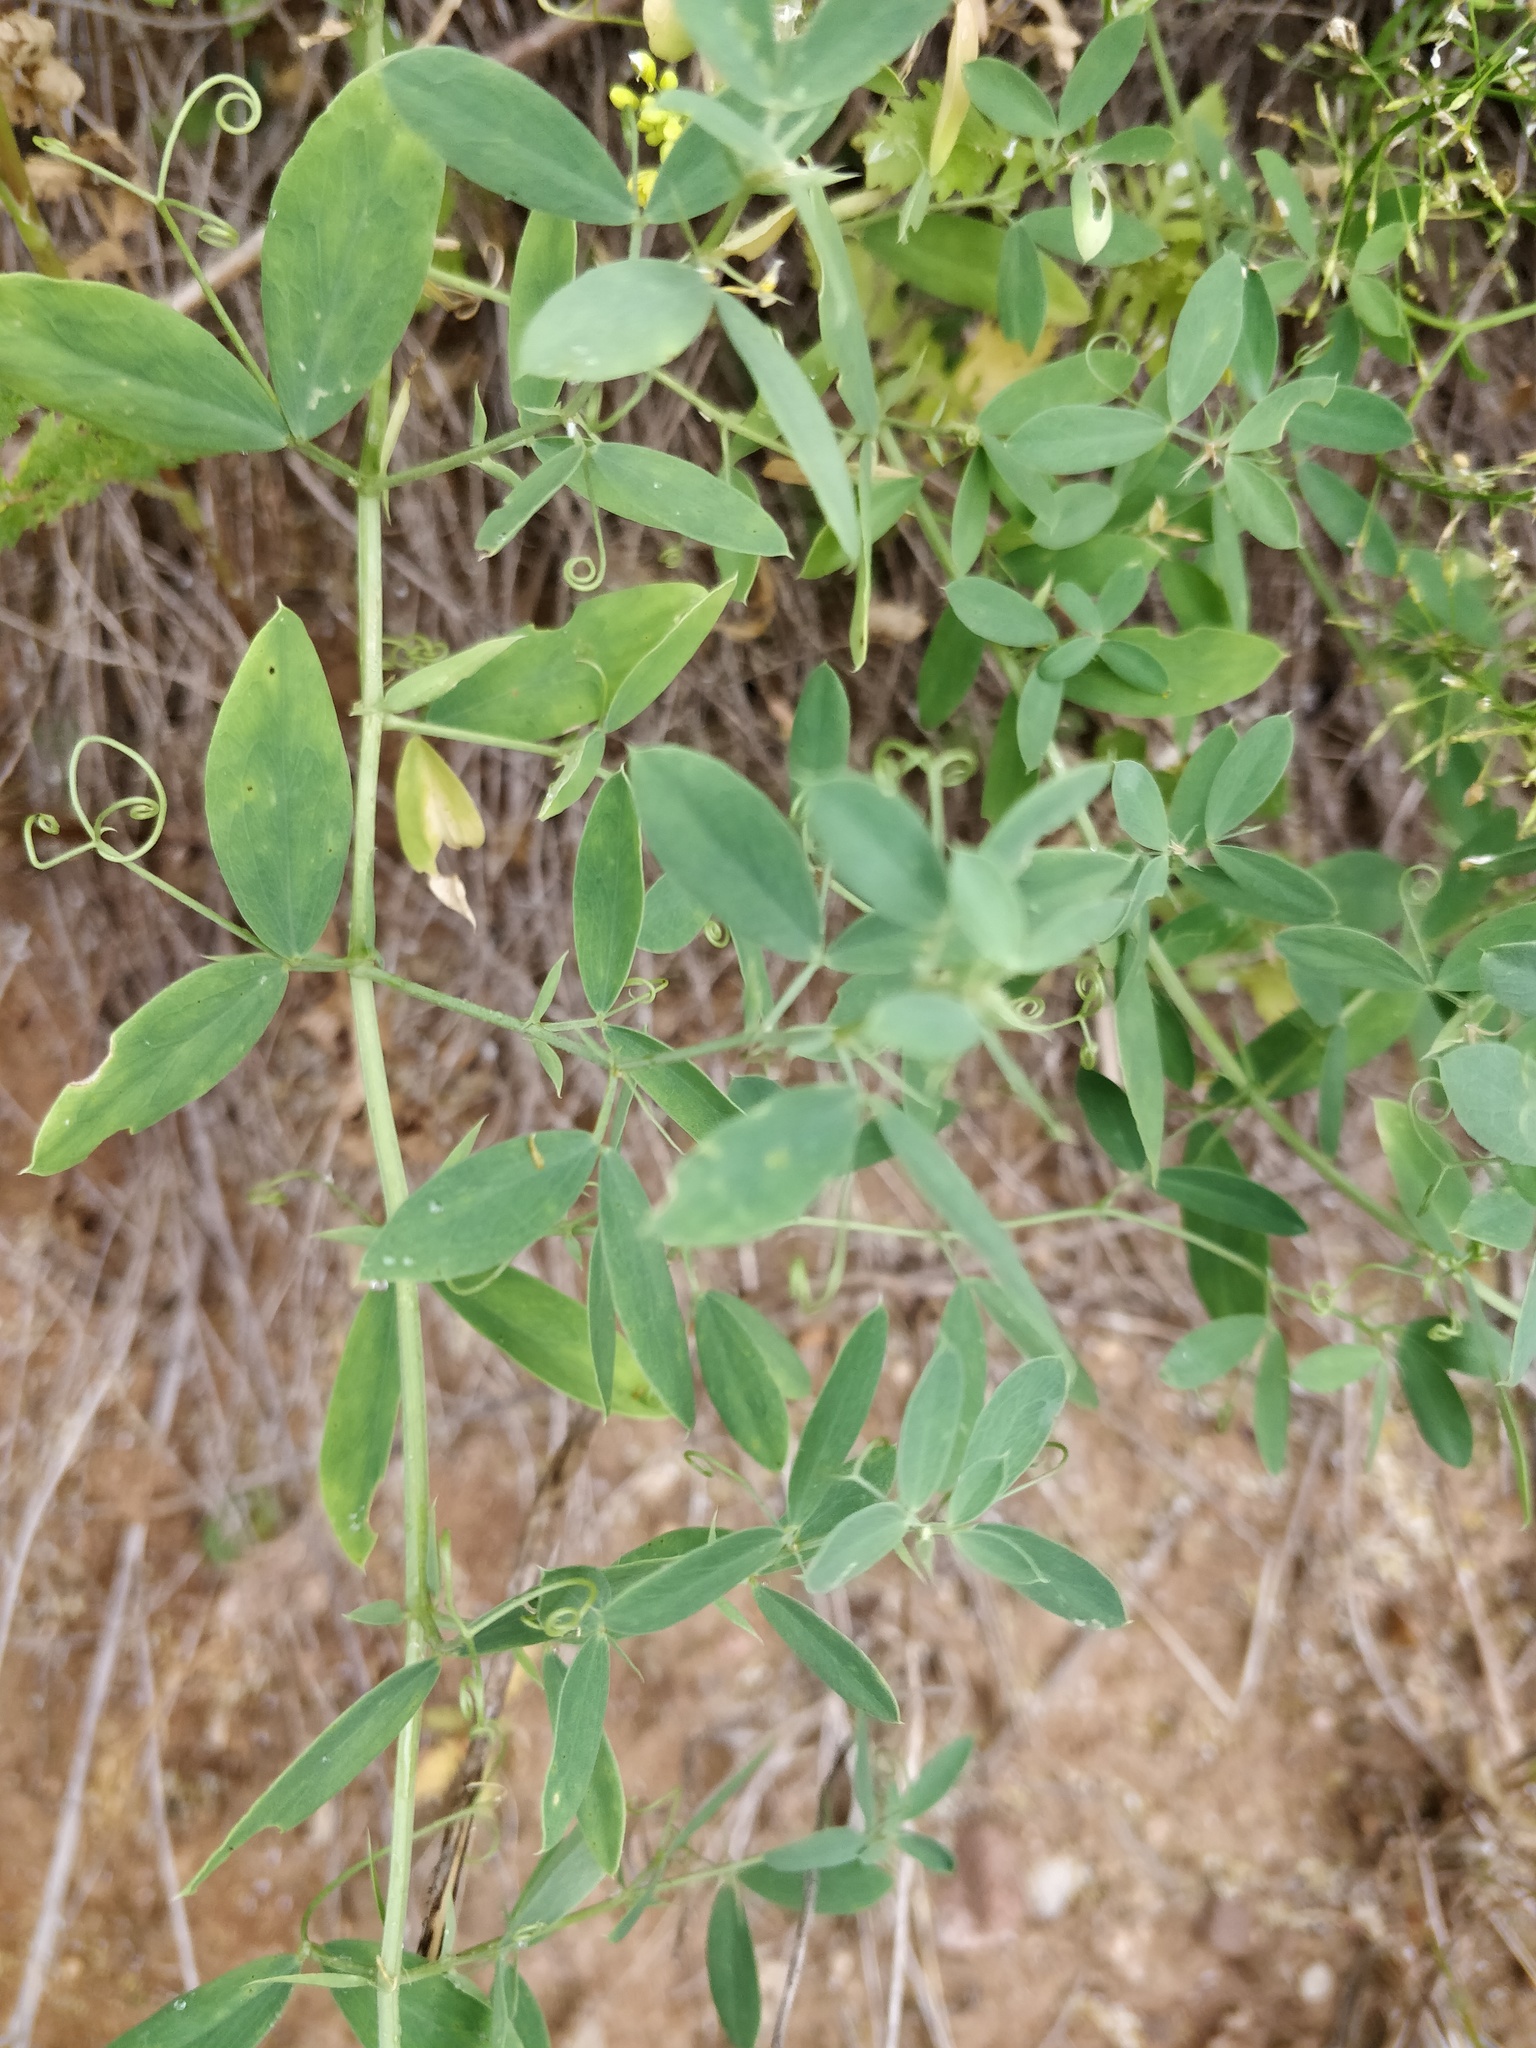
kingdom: Plantae
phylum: Tracheophyta
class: Magnoliopsida
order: Fabales
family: Fabaceae
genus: Lathyrus
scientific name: Lathyrus tuberosus
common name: Tuberous pea
